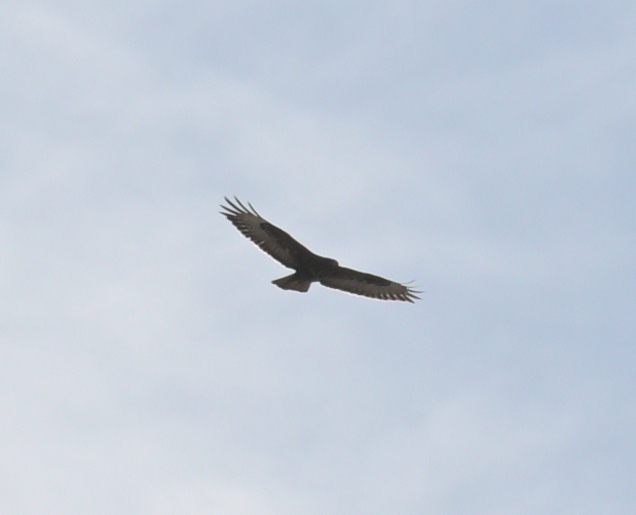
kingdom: Animalia
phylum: Chordata
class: Aves
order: Accipitriformes
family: Accipitridae
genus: Buteo
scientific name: Buteo buteo
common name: Common buzzard
